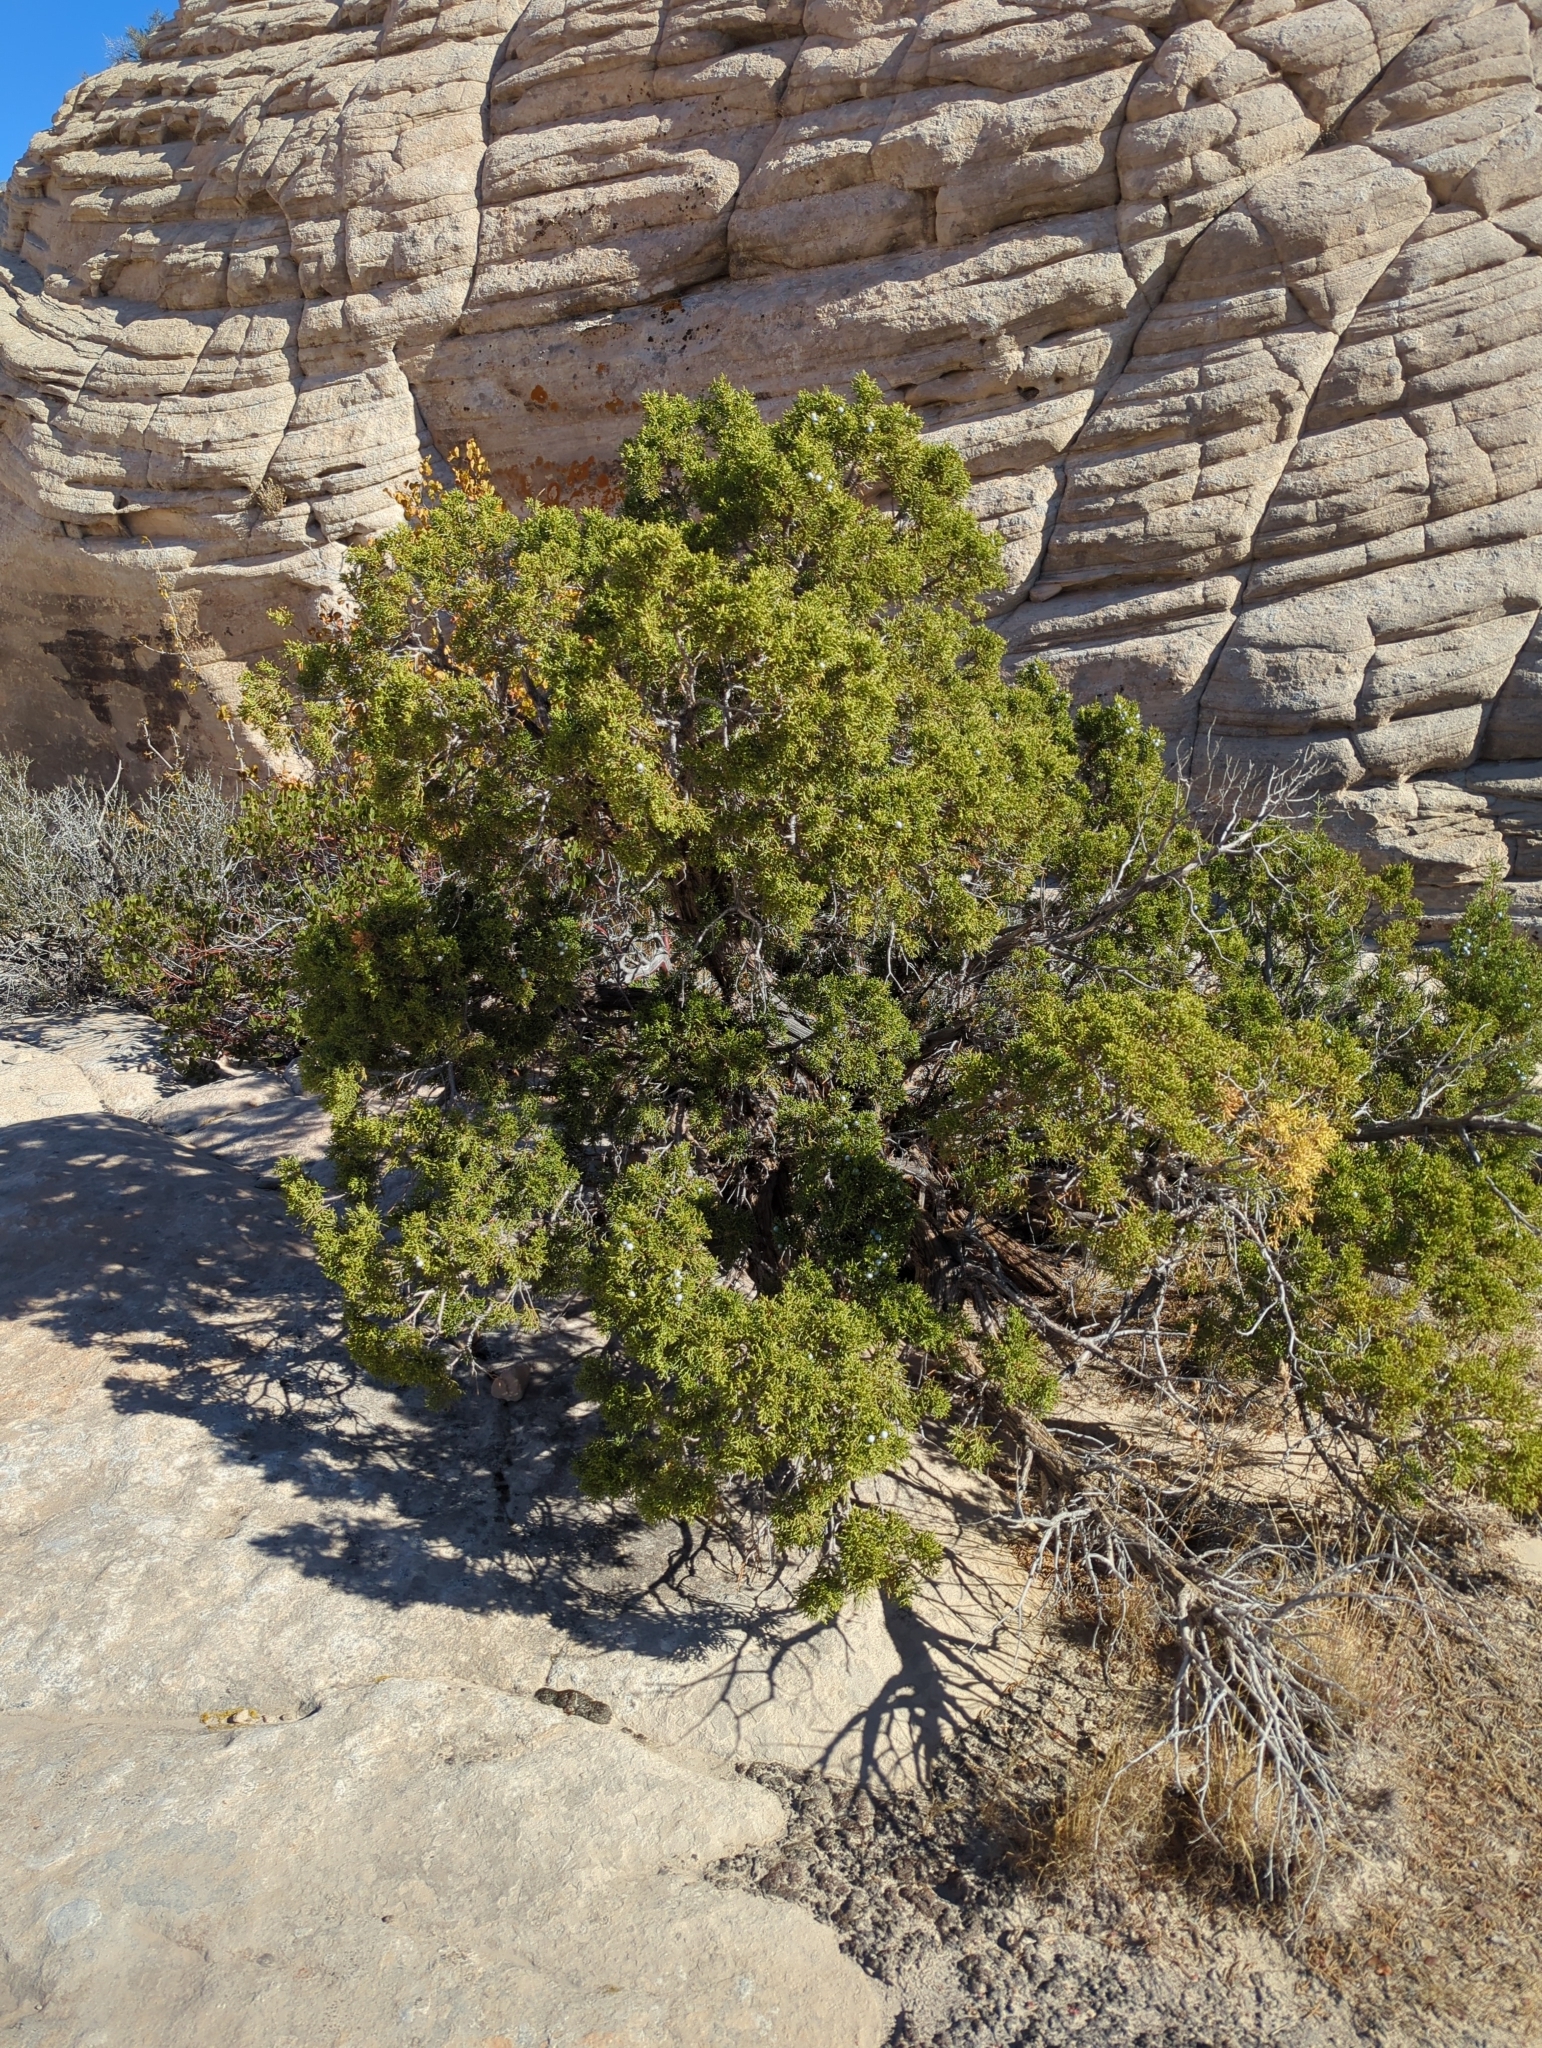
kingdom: Plantae
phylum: Tracheophyta
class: Pinopsida
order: Pinales
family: Cupressaceae
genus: Juniperus
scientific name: Juniperus osteosperma
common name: Utah juniper
